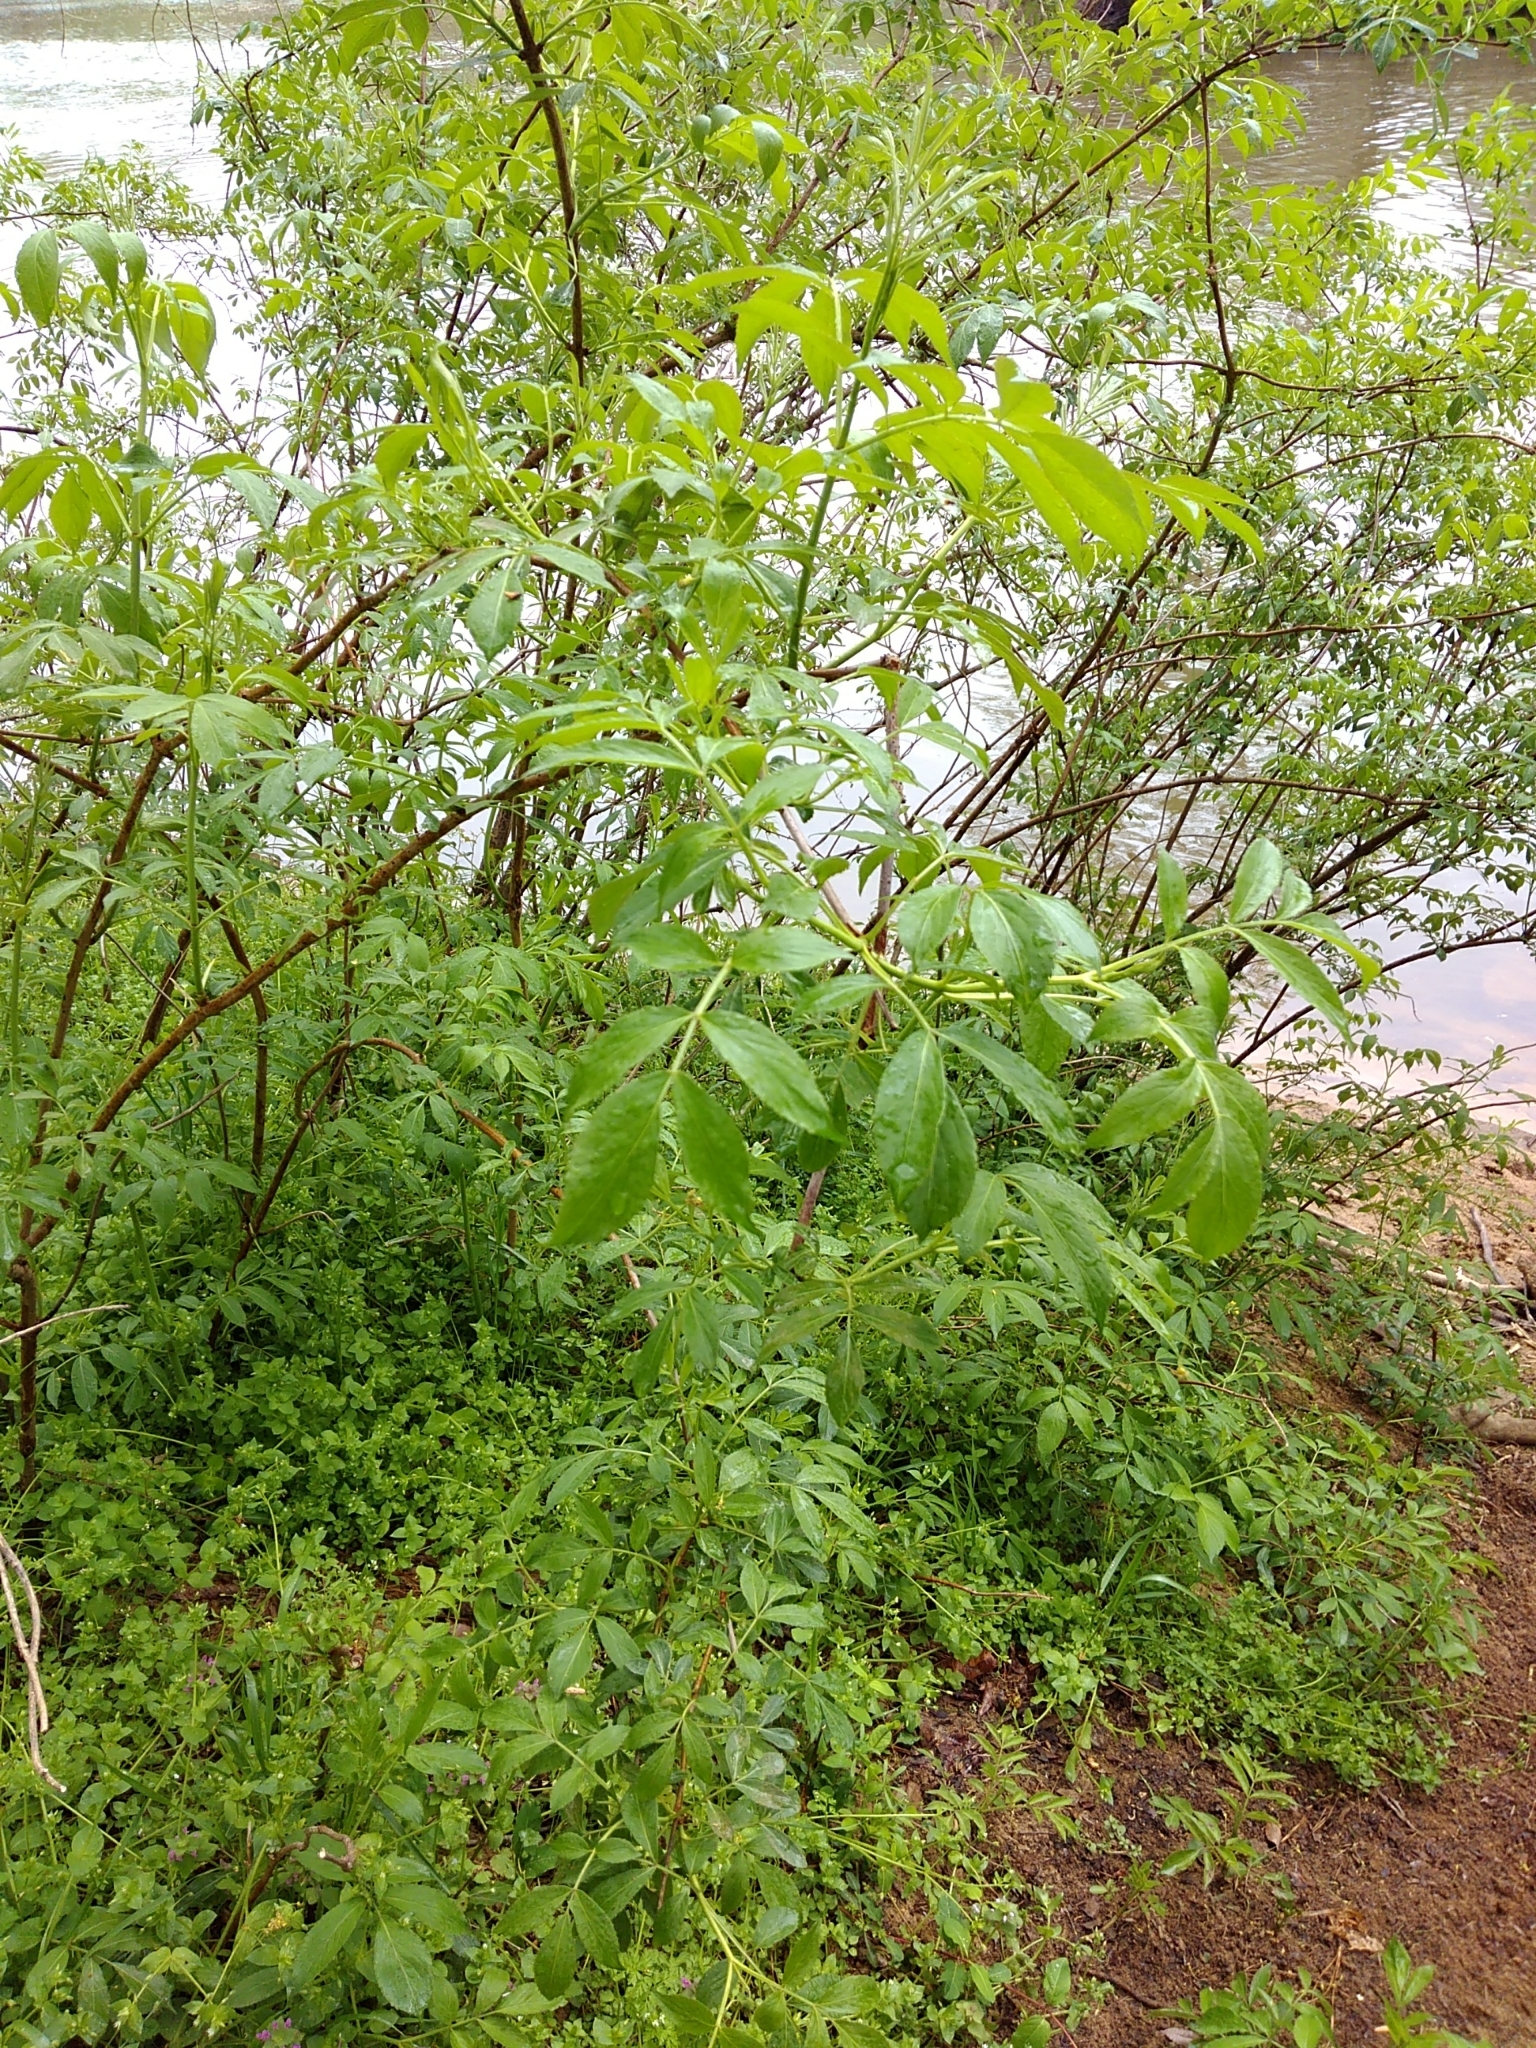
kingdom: Plantae
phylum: Tracheophyta
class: Magnoliopsida
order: Dipsacales
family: Viburnaceae
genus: Sambucus
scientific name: Sambucus canadensis
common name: American elder
